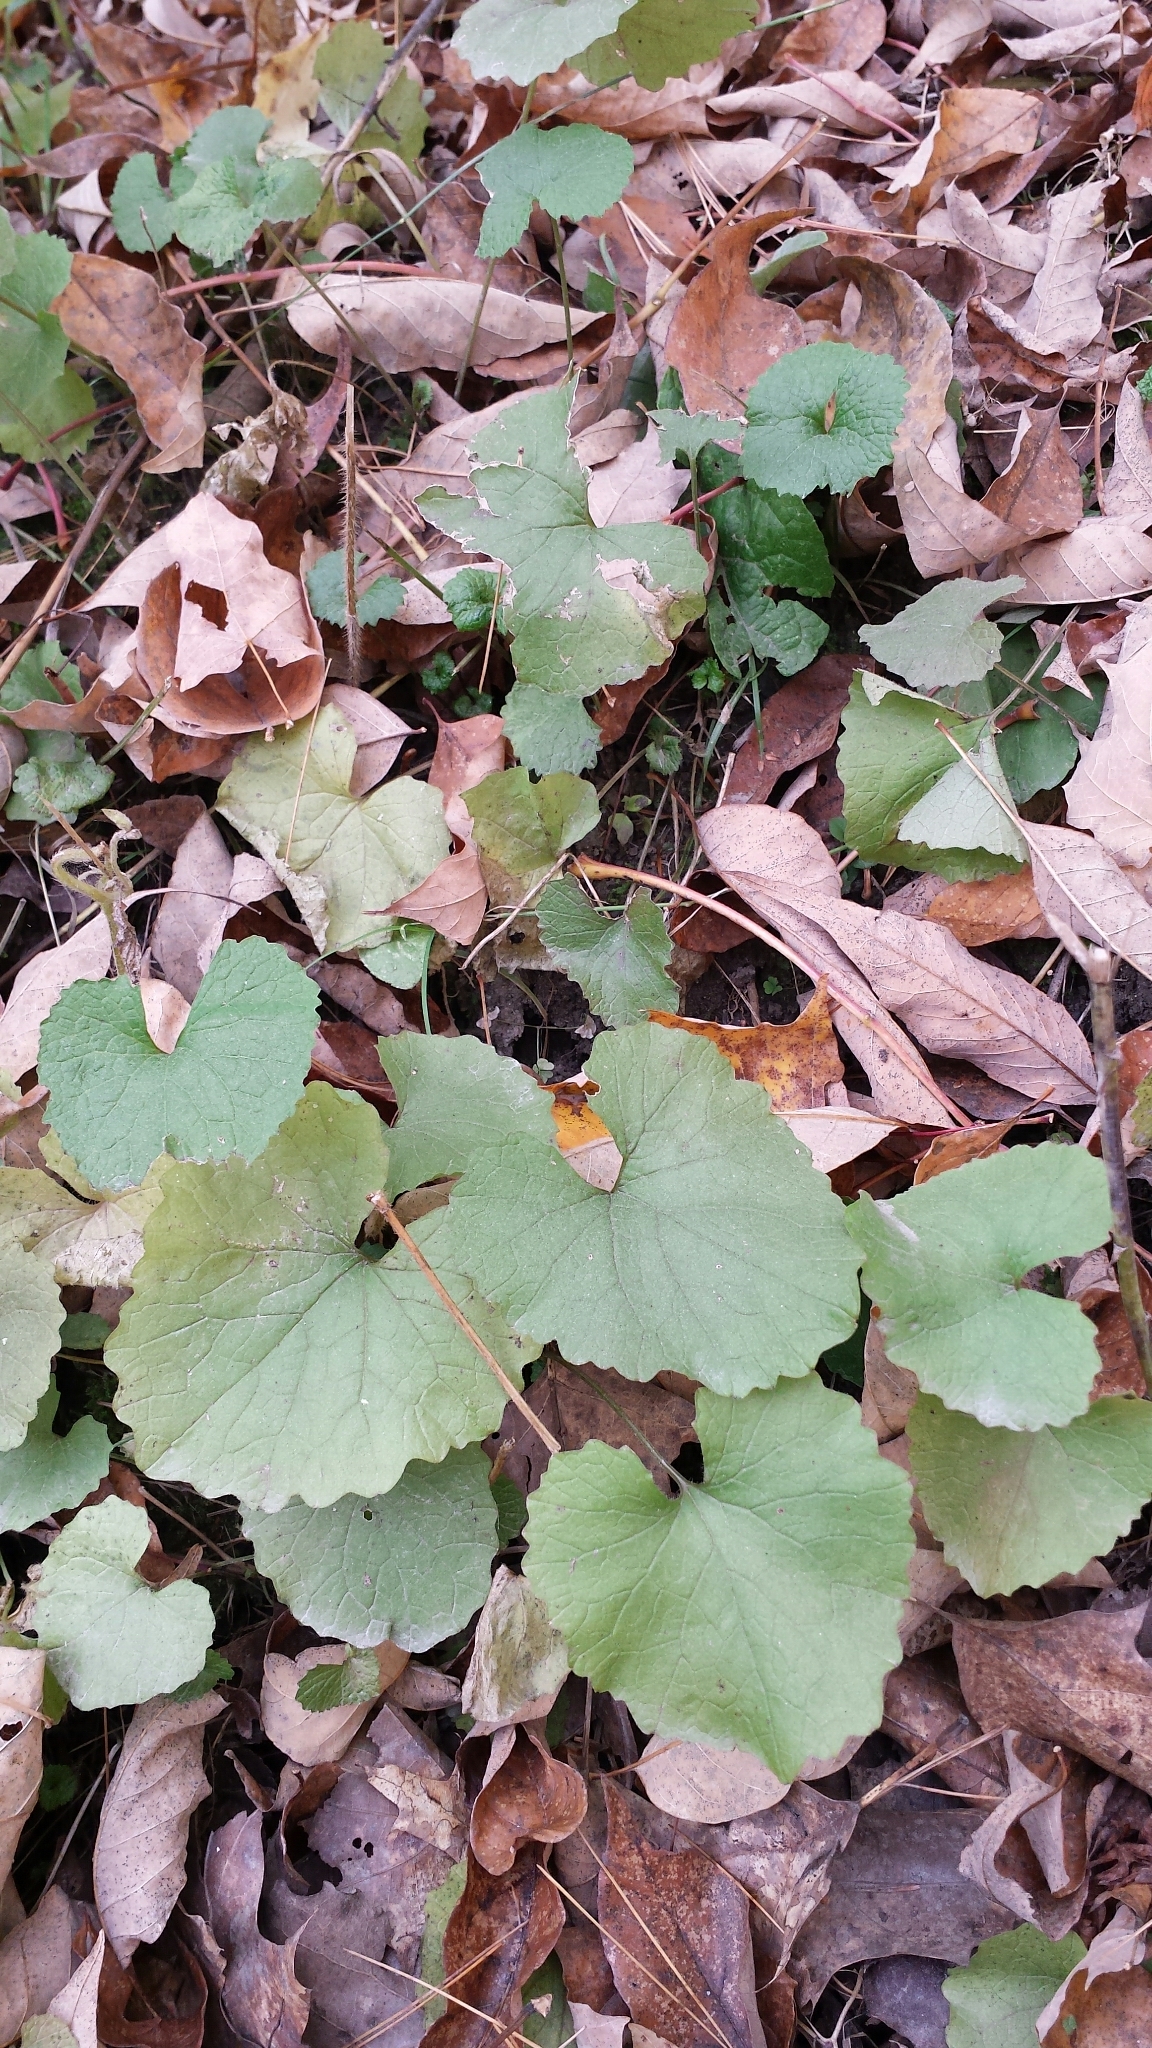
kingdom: Plantae
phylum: Tracheophyta
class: Magnoliopsida
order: Brassicales
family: Brassicaceae
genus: Alliaria
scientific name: Alliaria petiolata
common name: Garlic mustard
